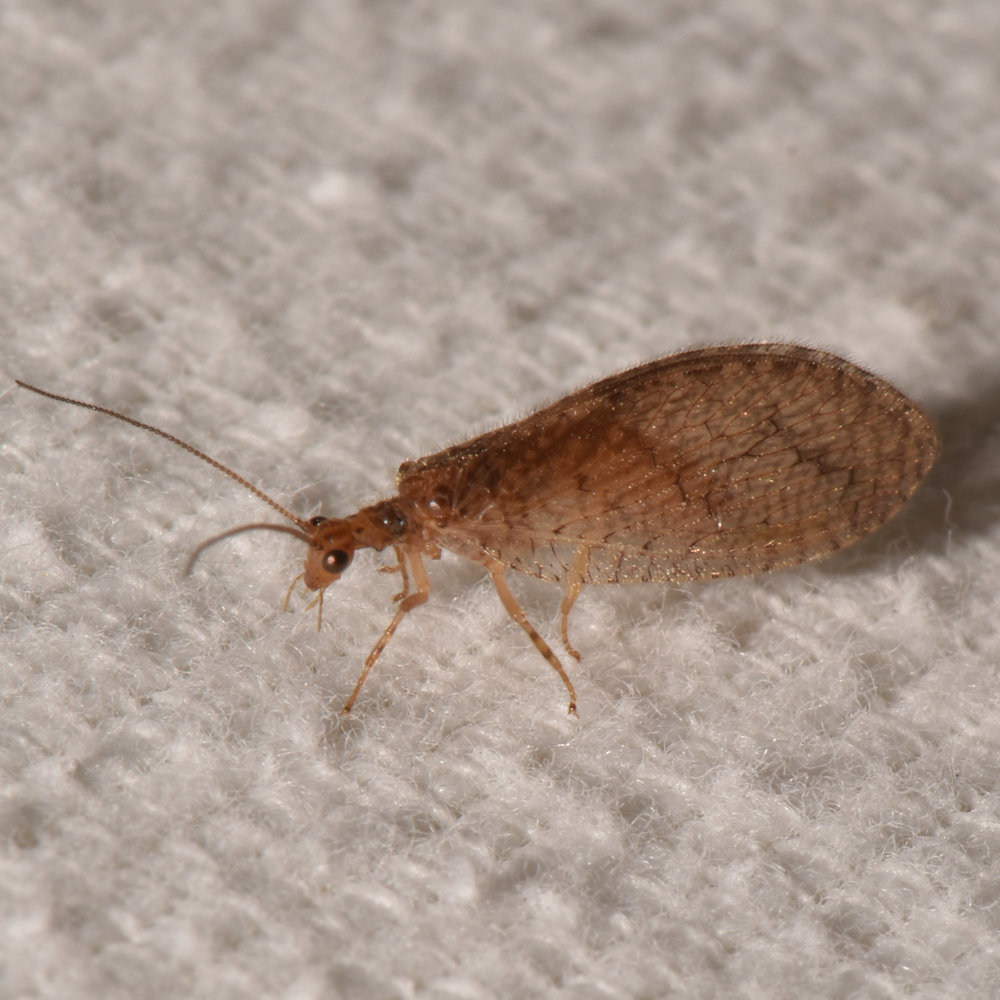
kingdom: Animalia
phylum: Arthropoda
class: Insecta
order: Neuroptera
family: Hemerobiidae
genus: Micromus
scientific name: Micromus posticus
